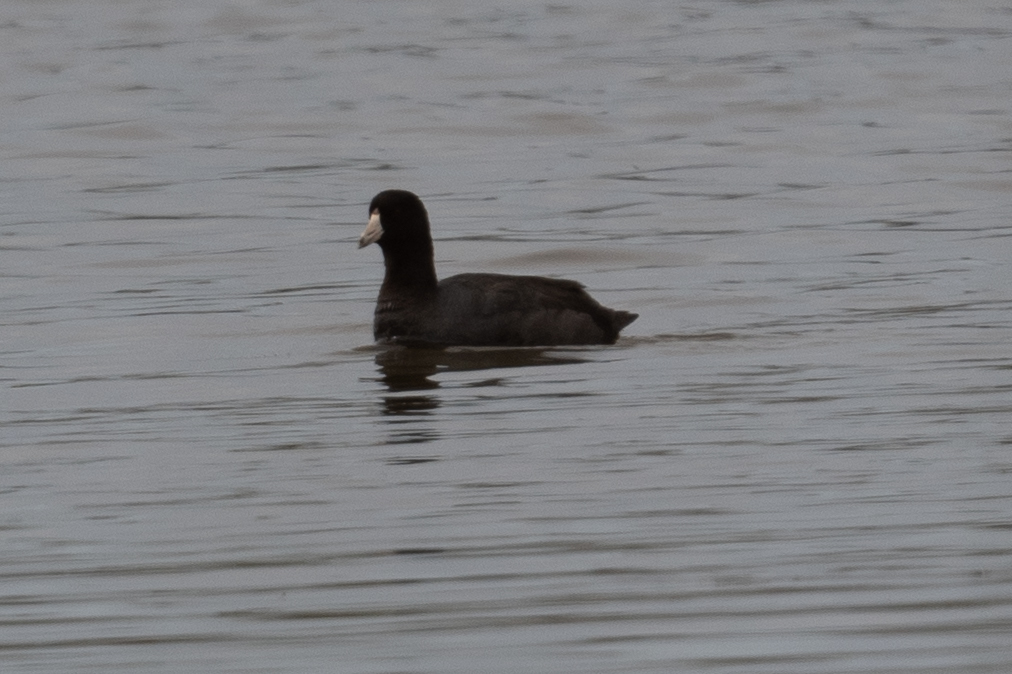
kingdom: Animalia
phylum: Chordata
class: Aves
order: Gruiformes
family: Rallidae
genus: Fulica
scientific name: Fulica americana
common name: American coot
